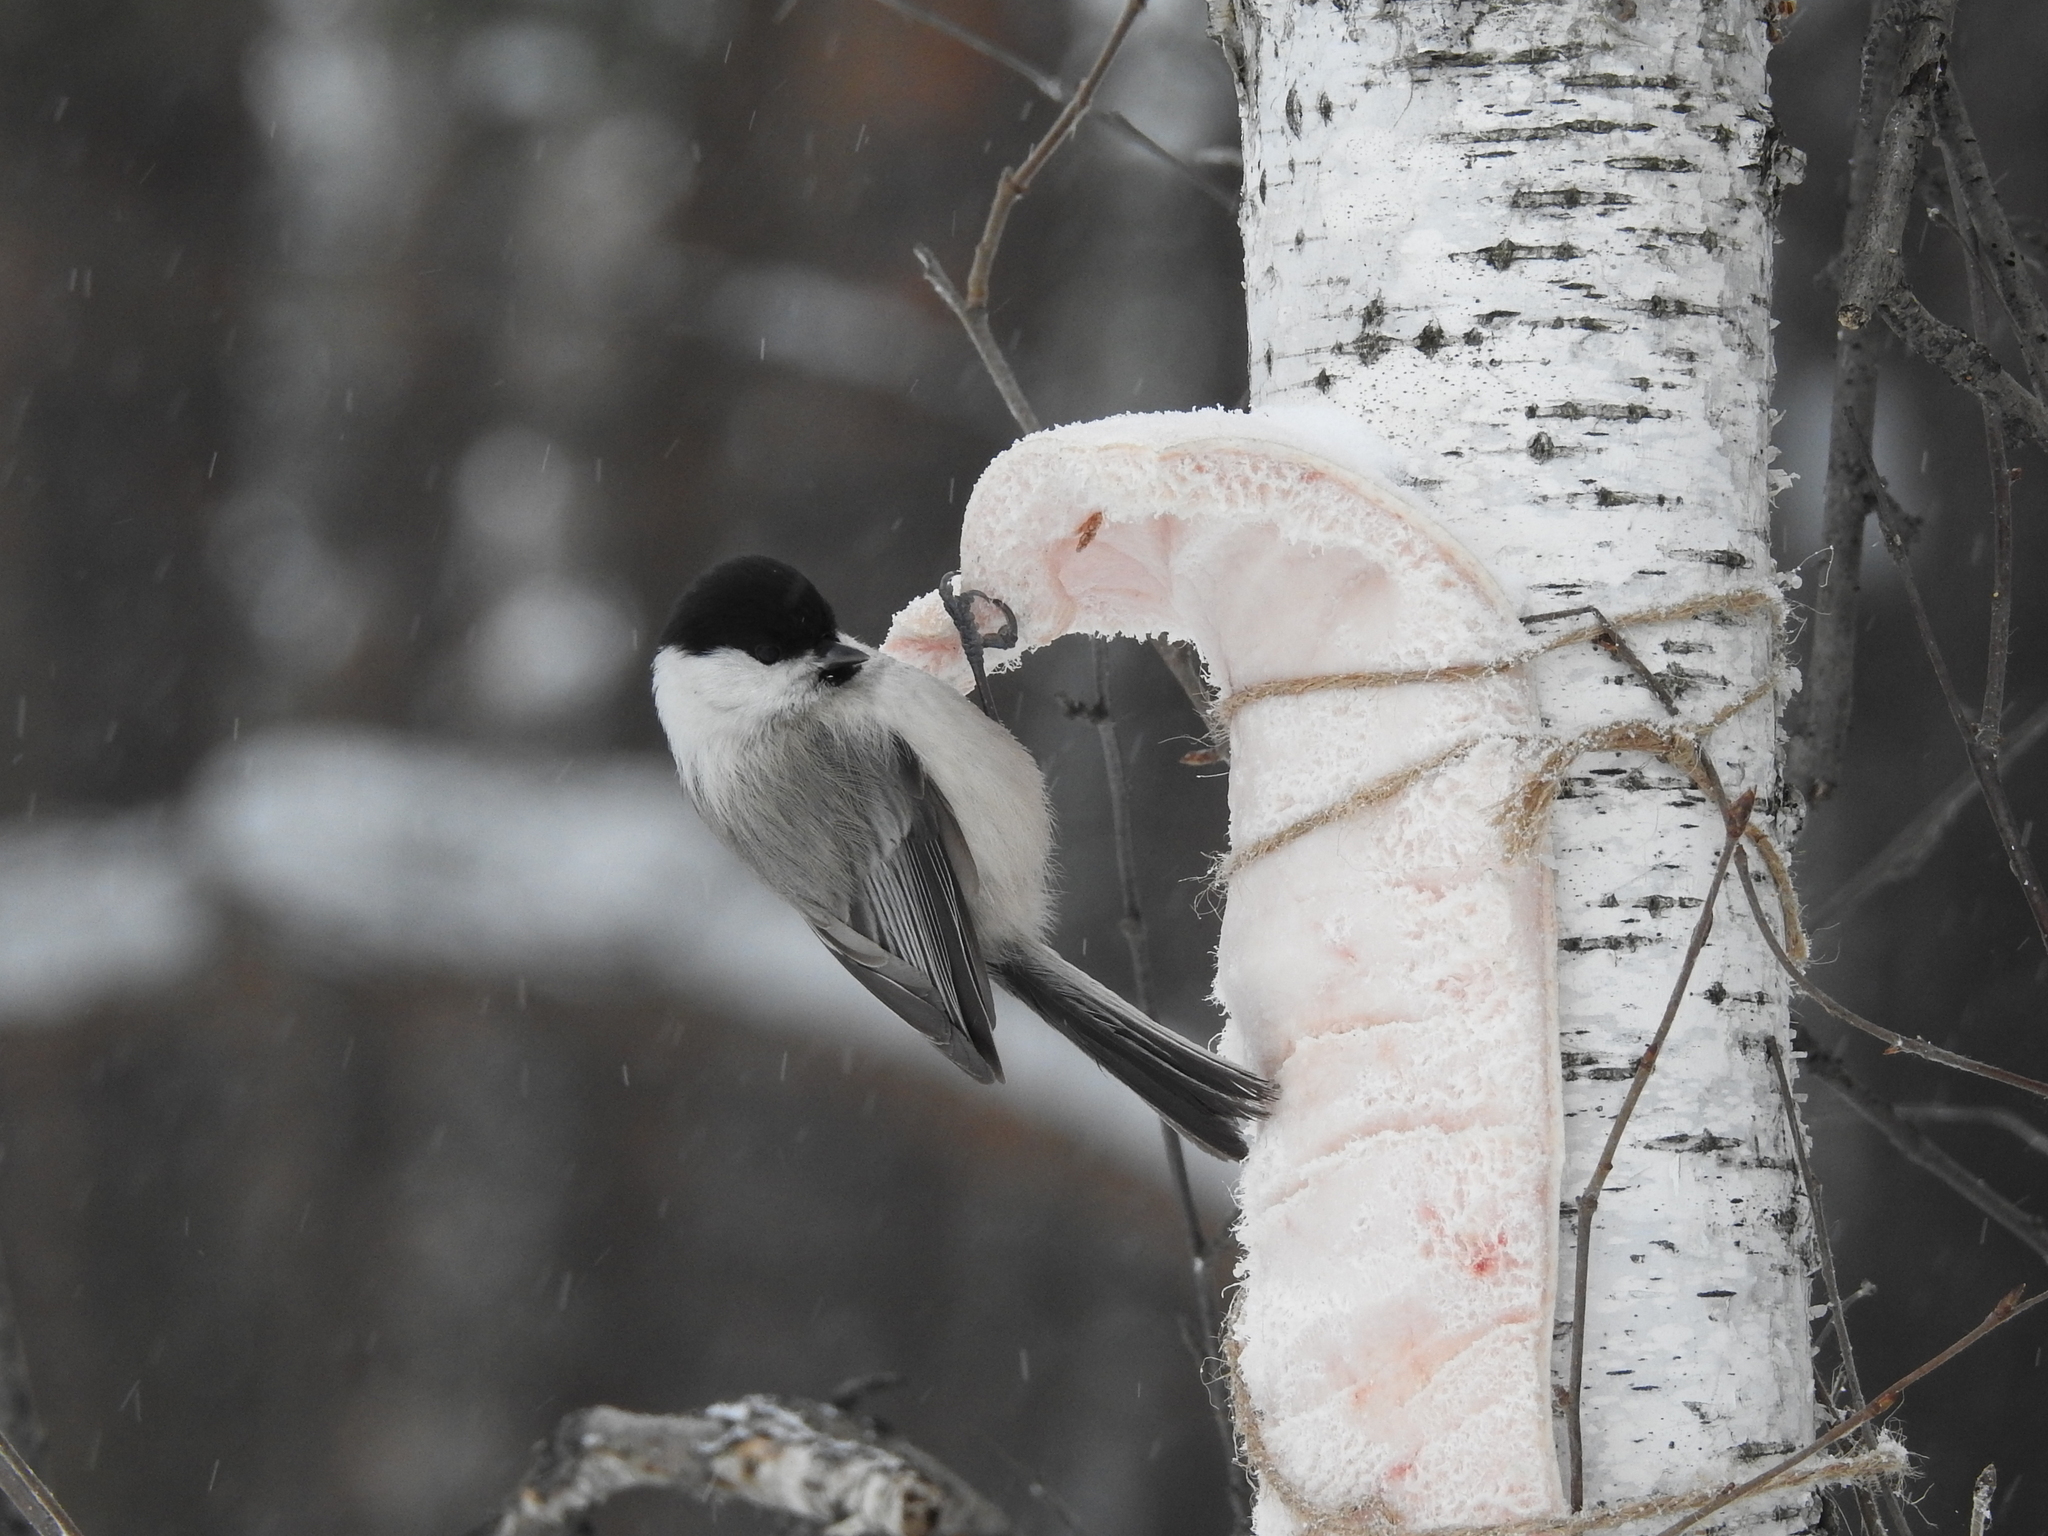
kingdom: Animalia
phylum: Chordata
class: Aves
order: Passeriformes
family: Paridae
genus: Poecile
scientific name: Poecile montanus
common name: Willow tit
